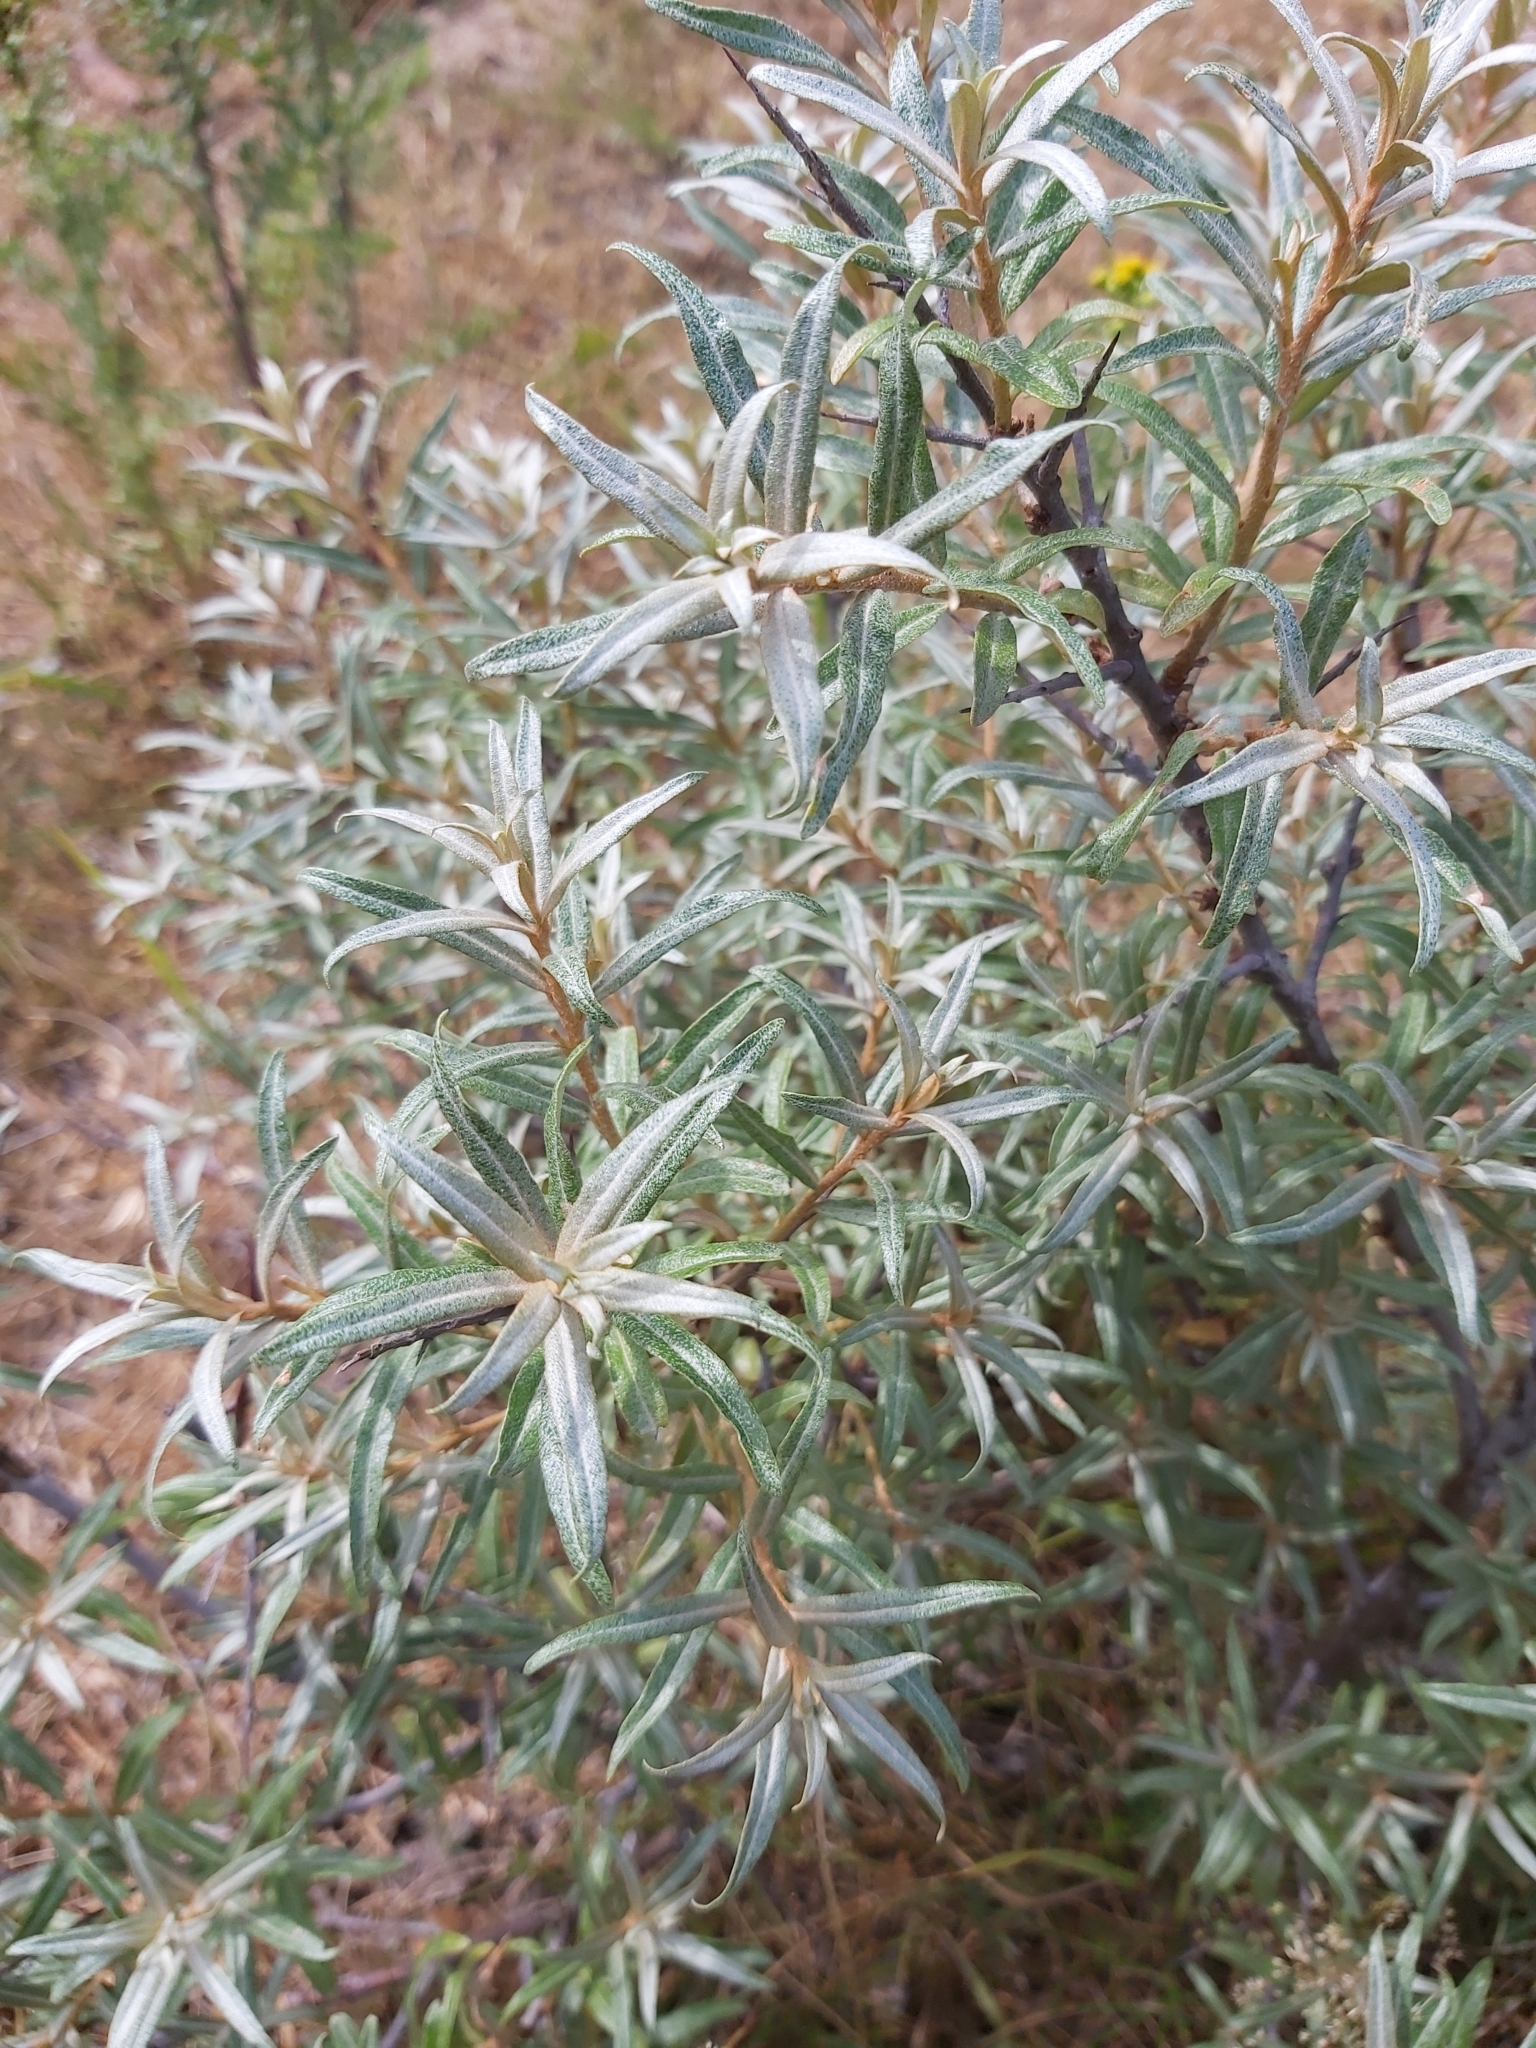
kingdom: Plantae
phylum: Tracheophyta
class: Magnoliopsida
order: Rosales
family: Elaeagnaceae
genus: Hippophae
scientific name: Hippophae rhamnoides
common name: Sea-buckthorn
